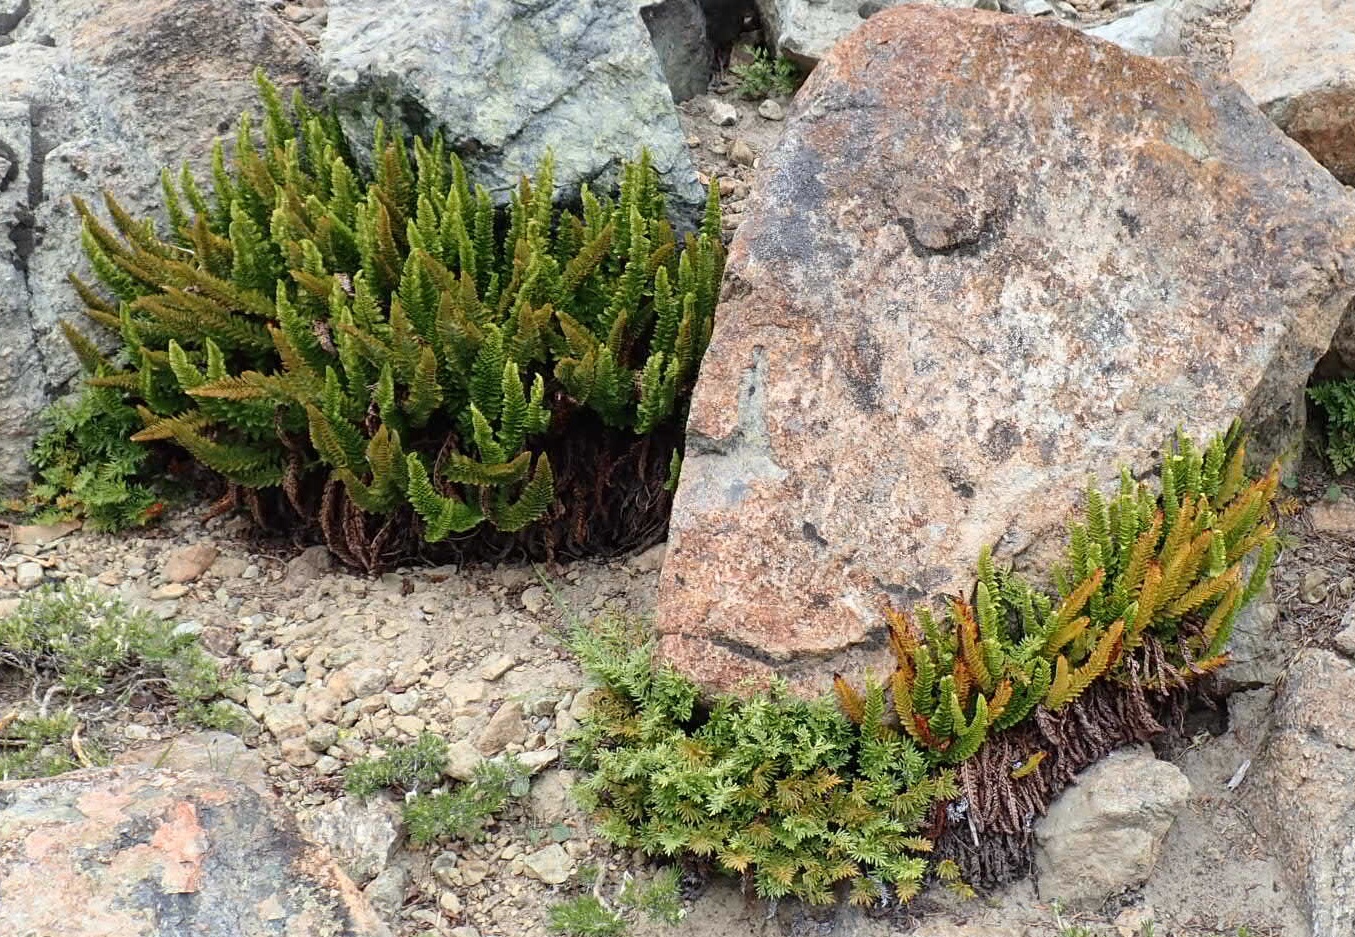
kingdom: Plantae
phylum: Tracheophyta
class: Polypodiopsida
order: Polypodiales
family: Dryopteridaceae
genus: Polystichum
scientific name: Polystichum lemmonii
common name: Lemmon's holly fern
